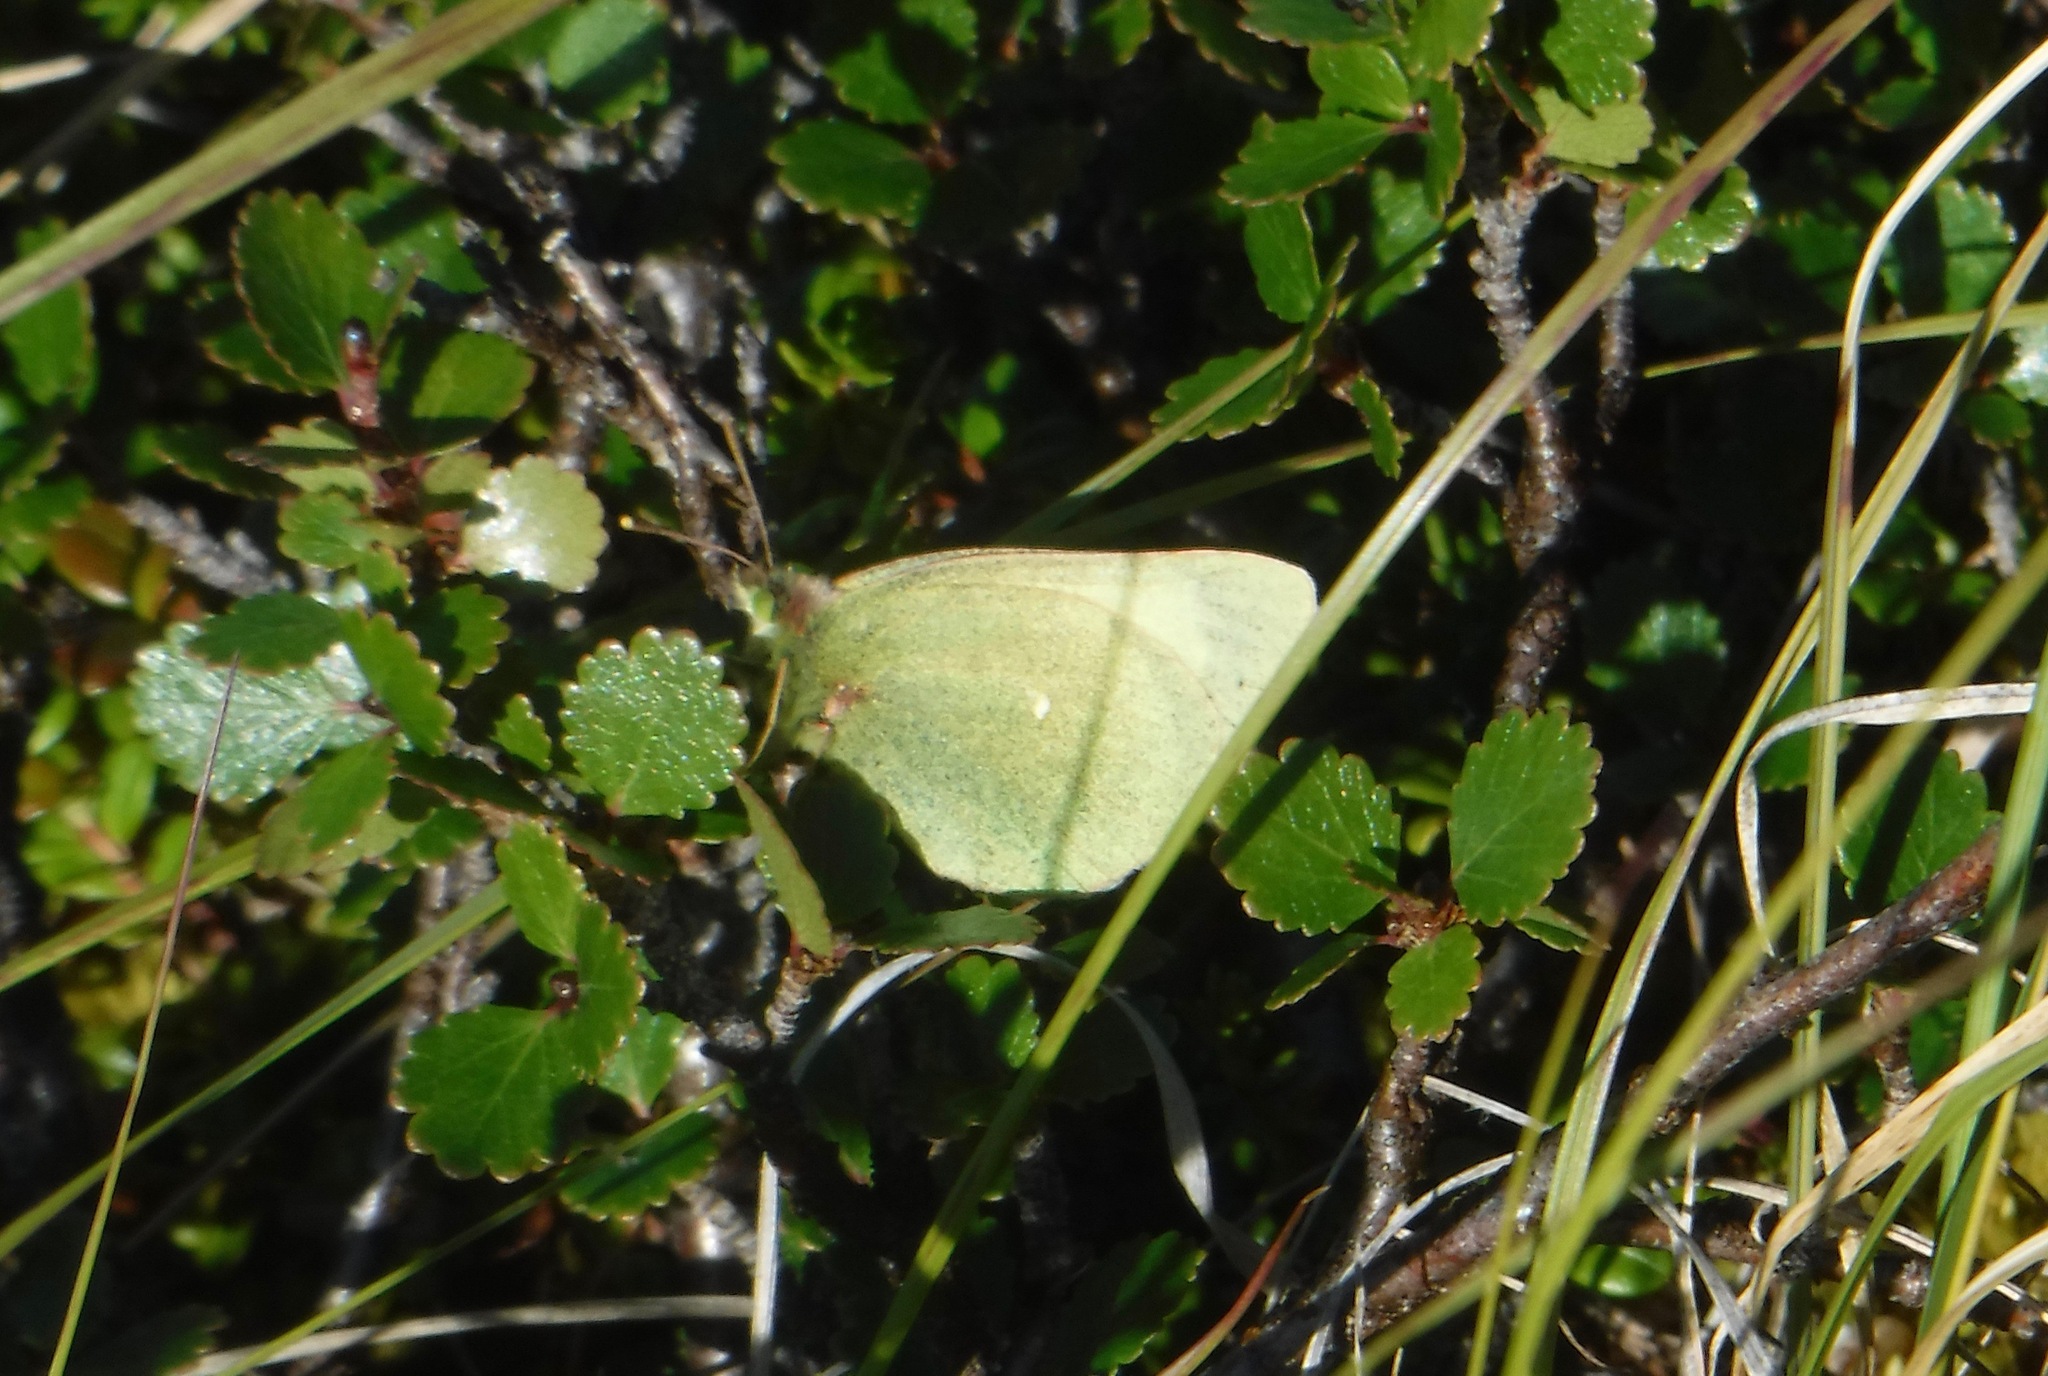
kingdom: Animalia
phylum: Arthropoda
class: Insecta
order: Lepidoptera
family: Pieridae
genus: Colias
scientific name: Colias palaeno
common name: Moorland clouded yellow
